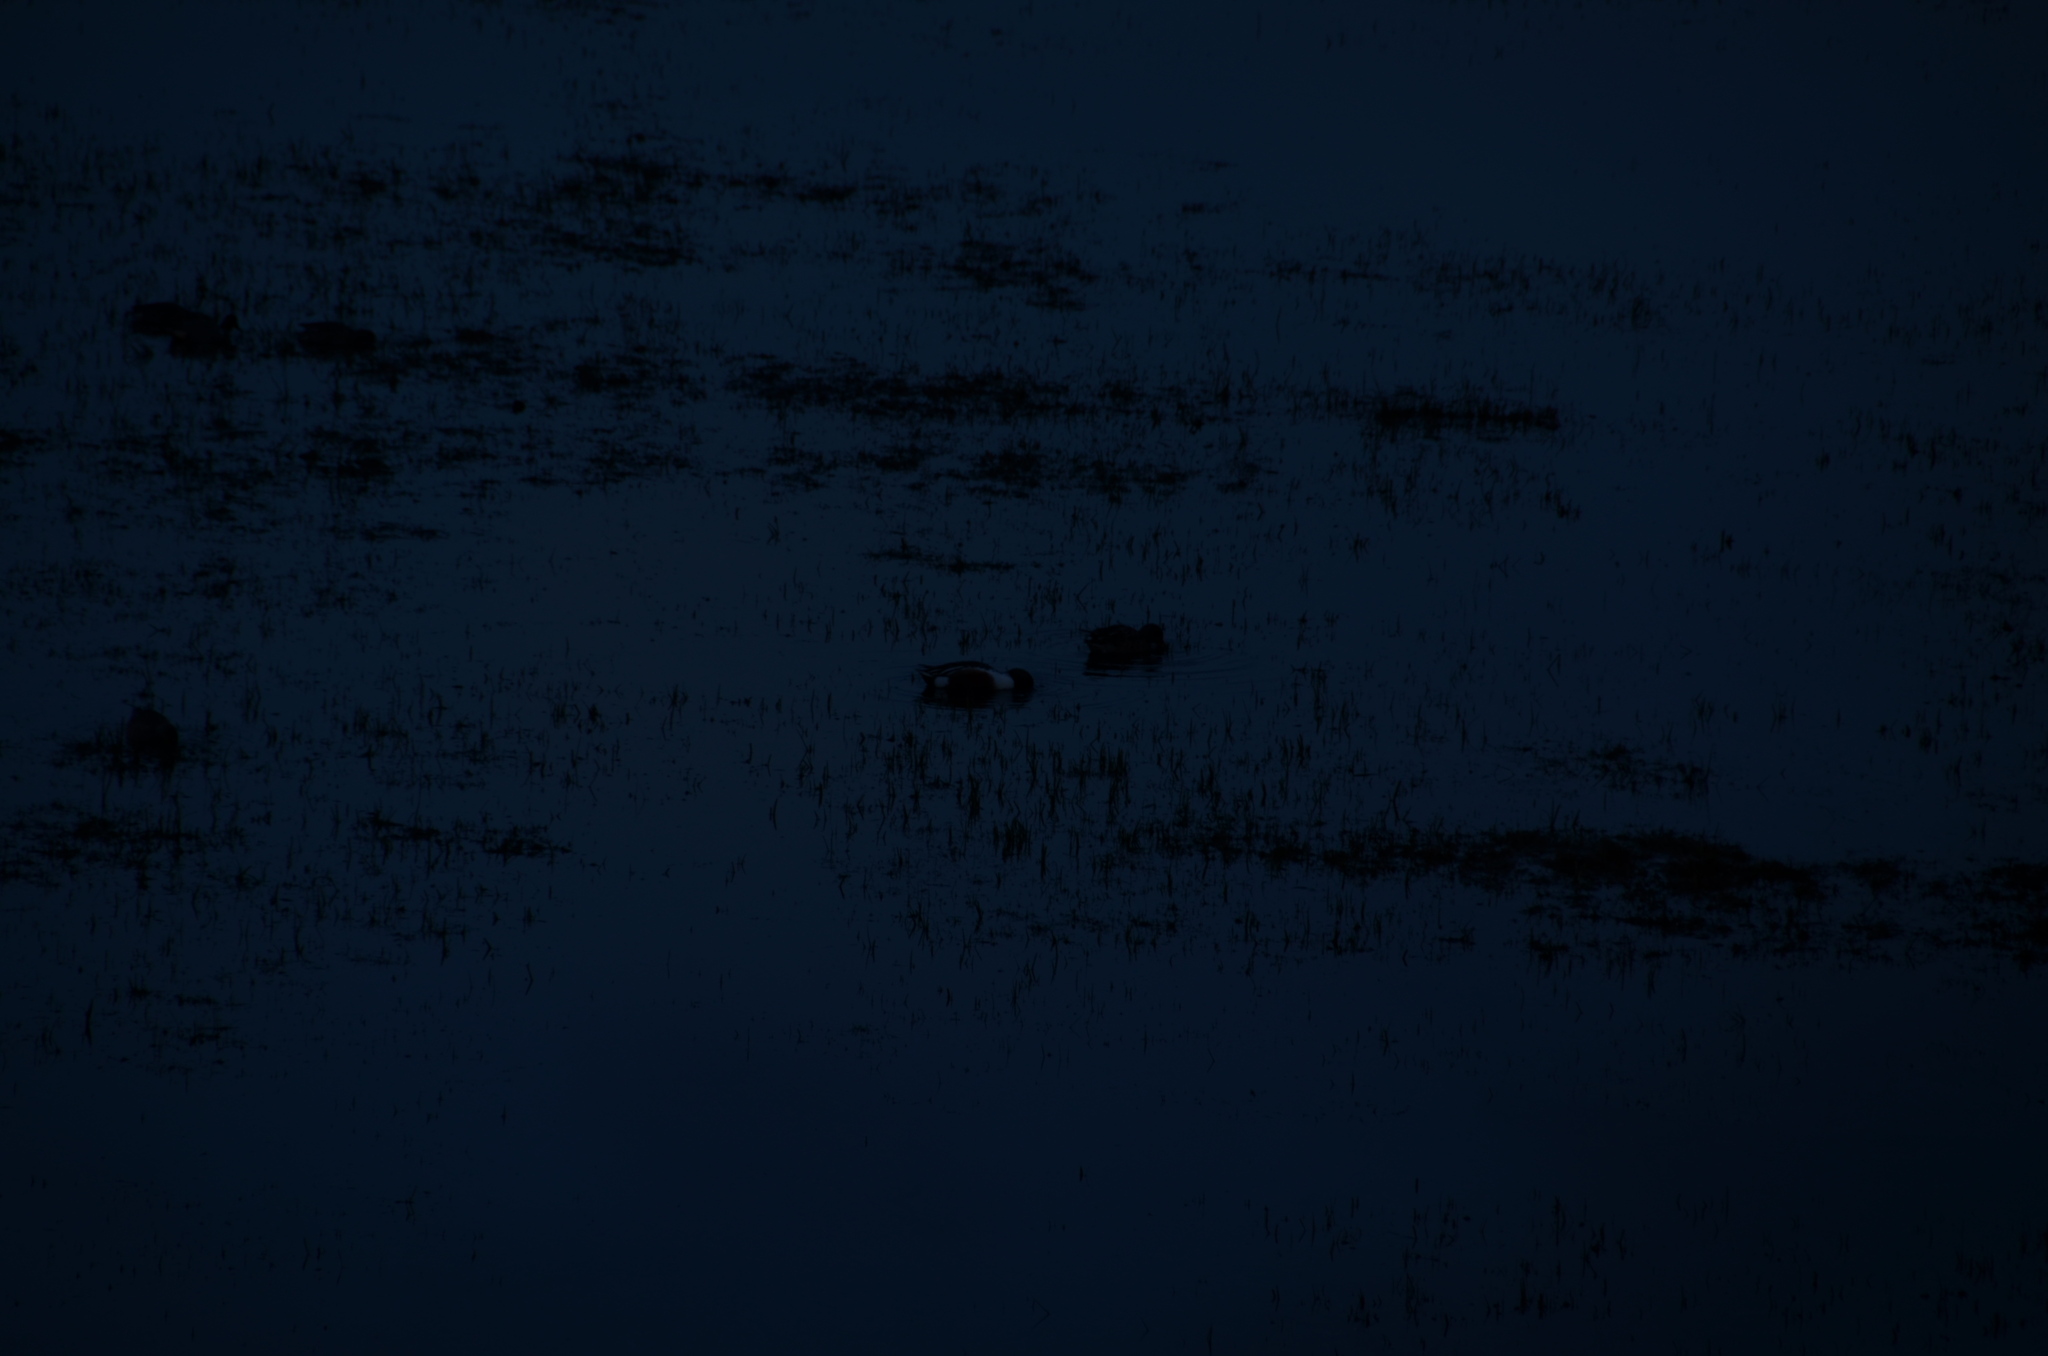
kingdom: Animalia
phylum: Chordata
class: Aves
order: Anseriformes
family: Anatidae
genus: Spatula
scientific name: Spatula clypeata
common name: Northern shoveler
